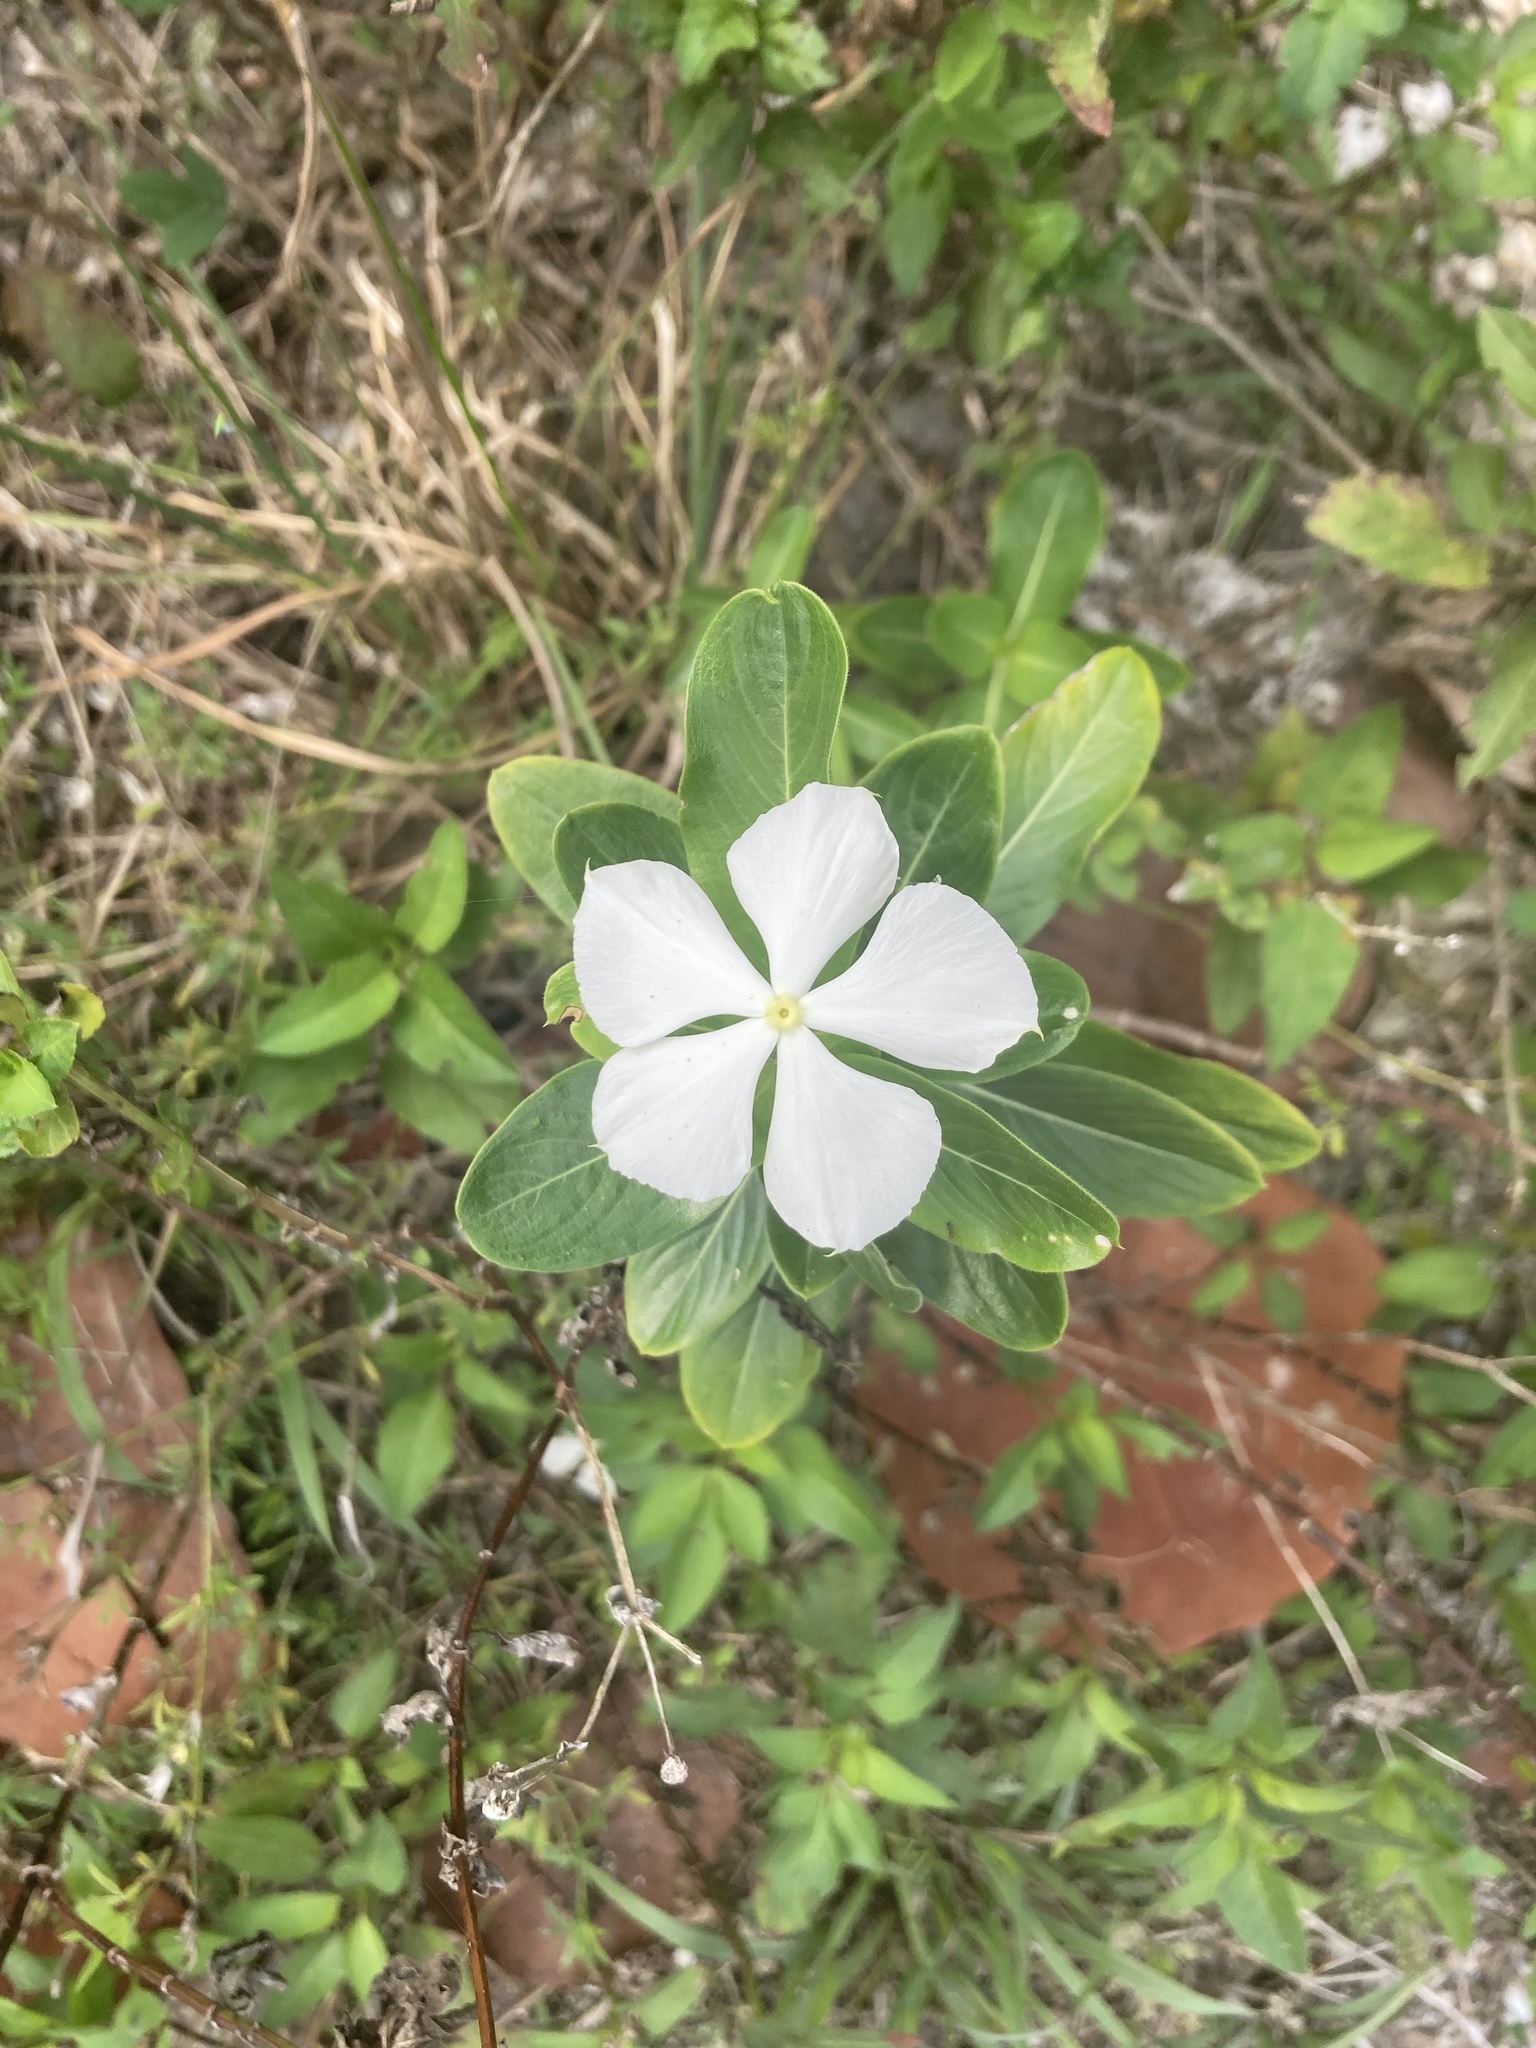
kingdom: Plantae
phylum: Tracheophyta
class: Magnoliopsida
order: Gentianales
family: Apocynaceae
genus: Catharanthus
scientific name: Catharanthus roseus
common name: Madagascar periwinkle
